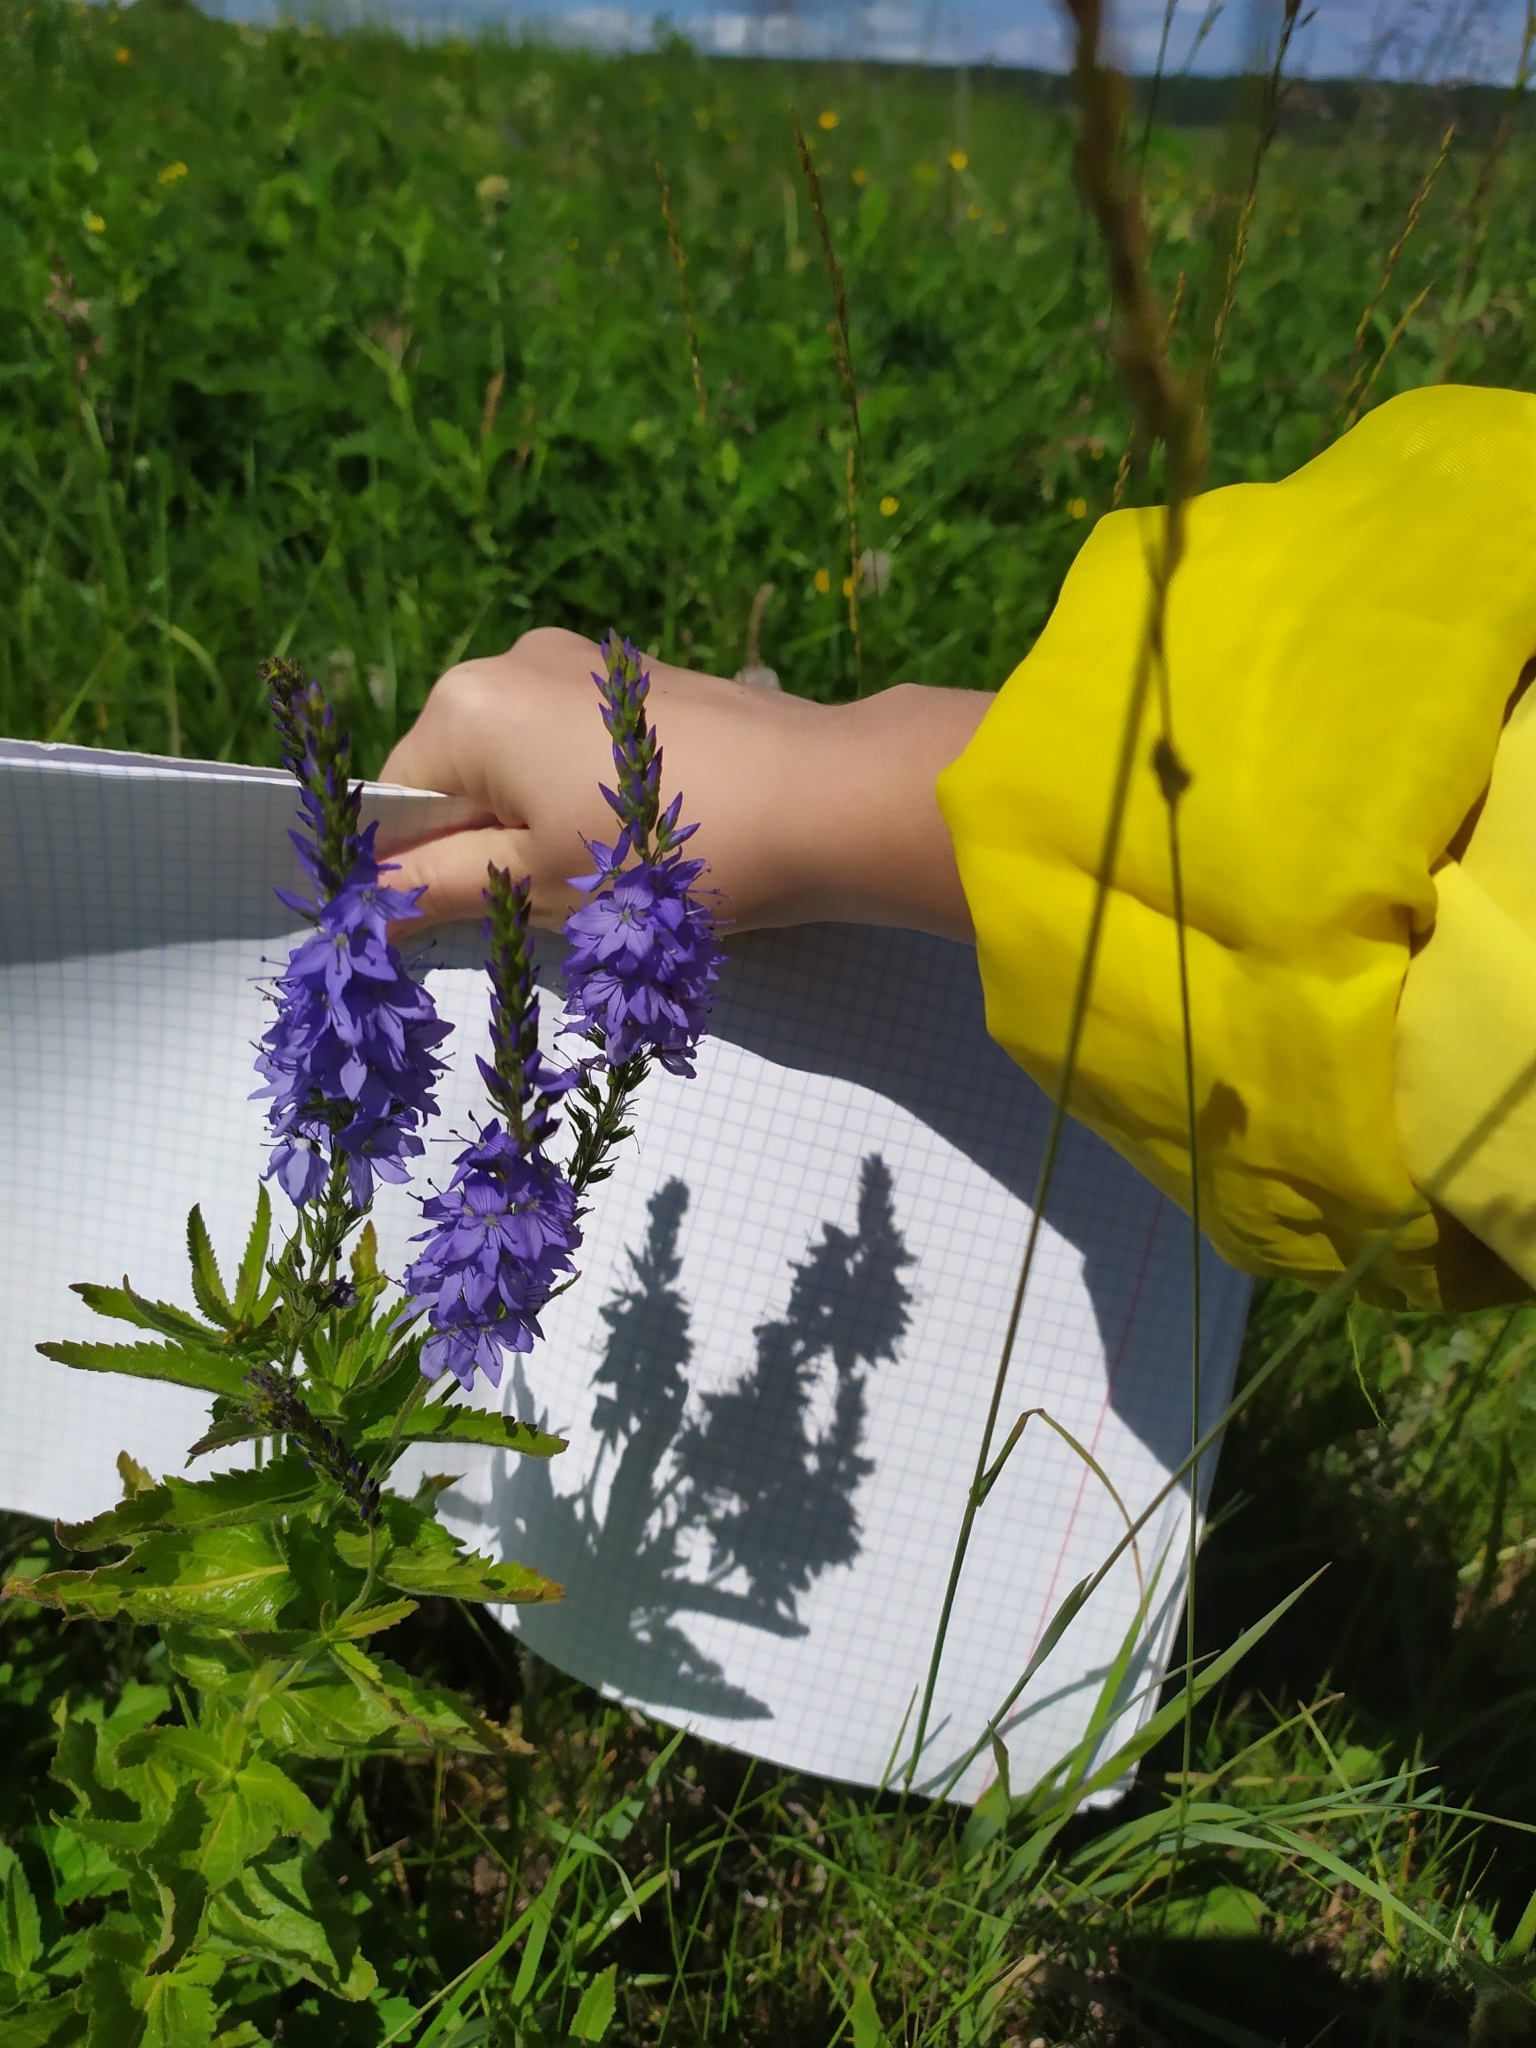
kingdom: Plantae
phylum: Tracheophyta
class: Magnoliopsida
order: Lamiales
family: Plantaginaceae
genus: Veronica
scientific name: Veronica teucrium
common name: Large speedwell
